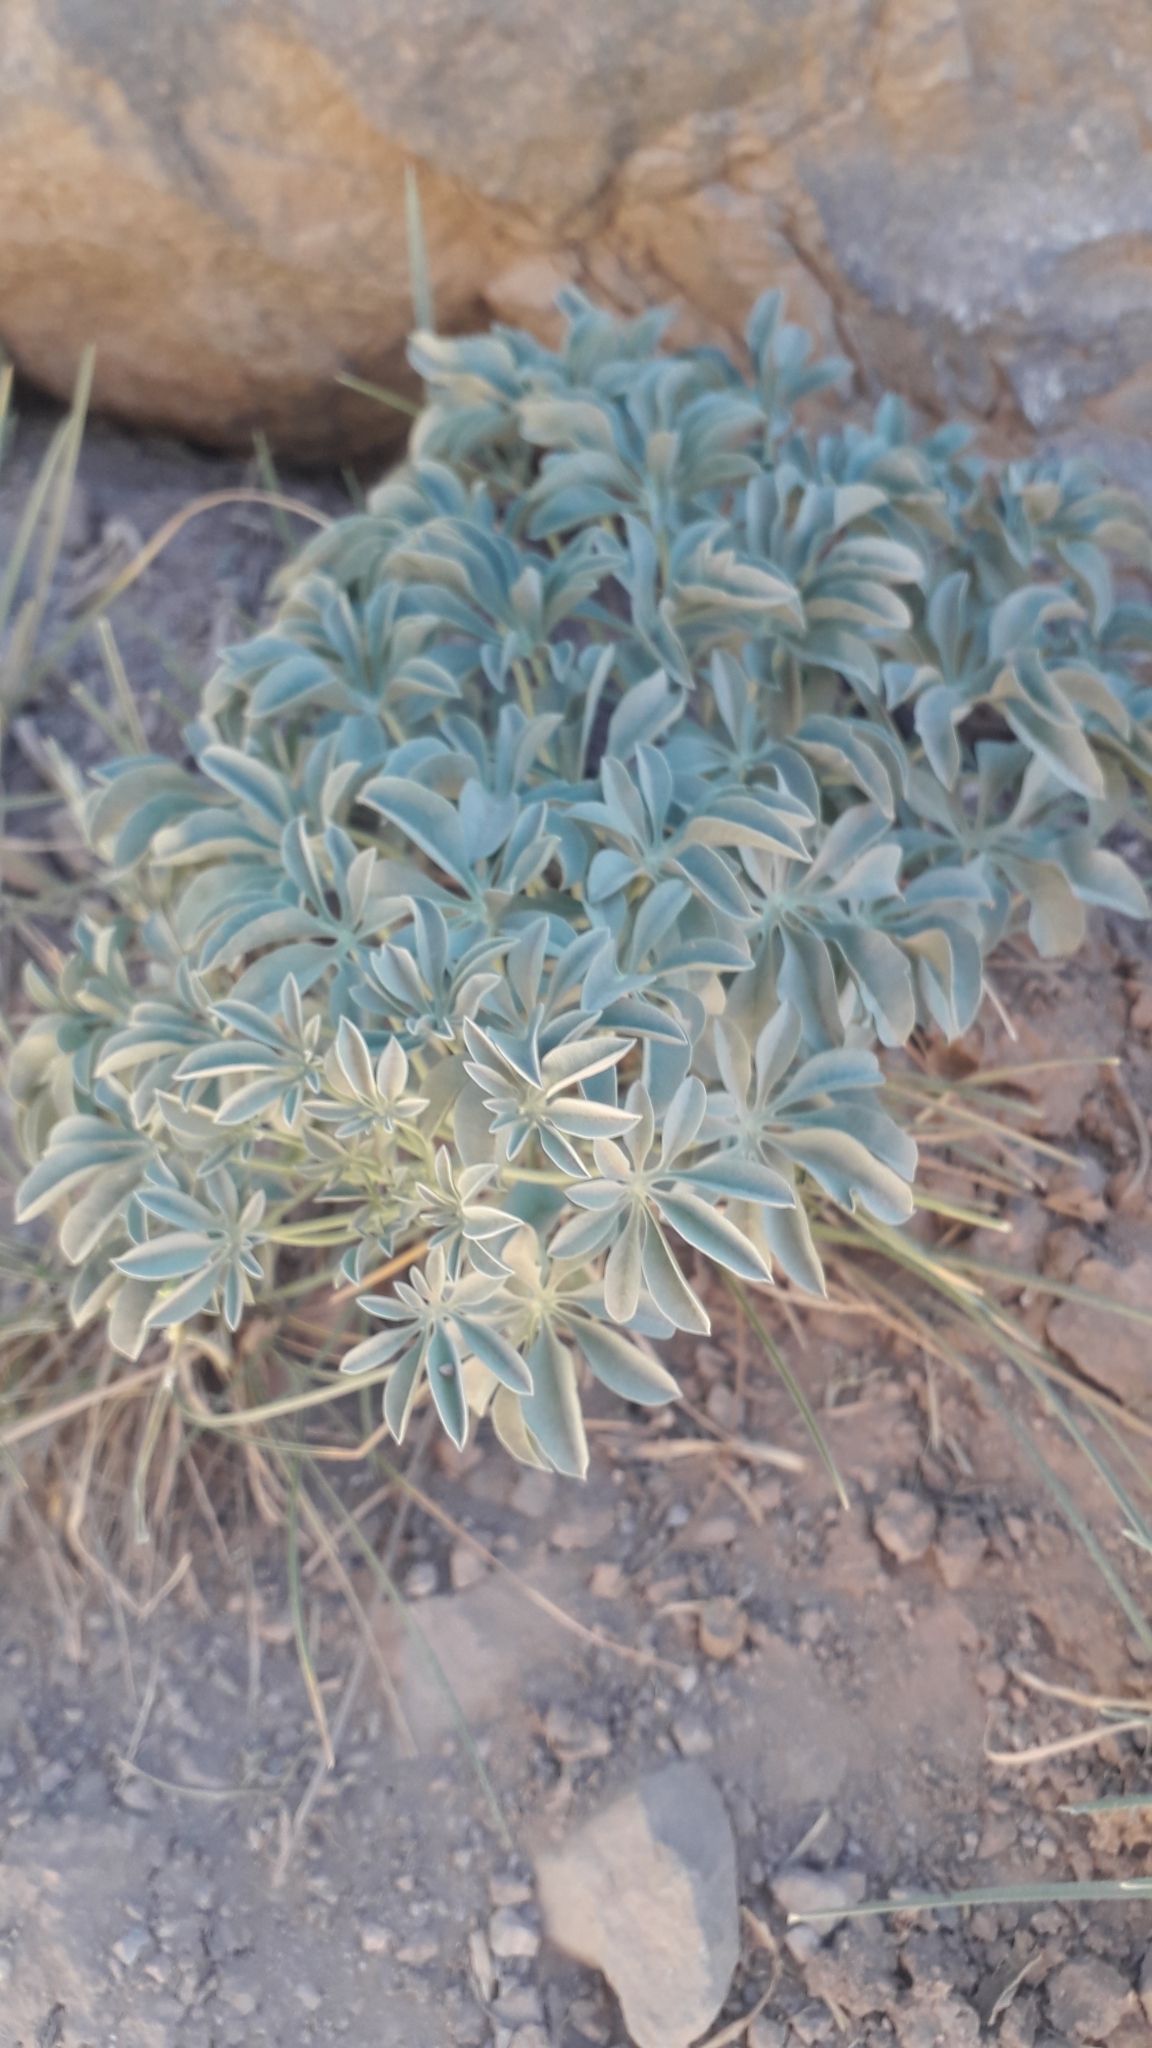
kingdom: Plantae
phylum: Tracheophyta
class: Magnoliopsida
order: Brassicales
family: Tropaeolaceae
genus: Tropaeolum
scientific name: Tropaeolum polyphyllum
